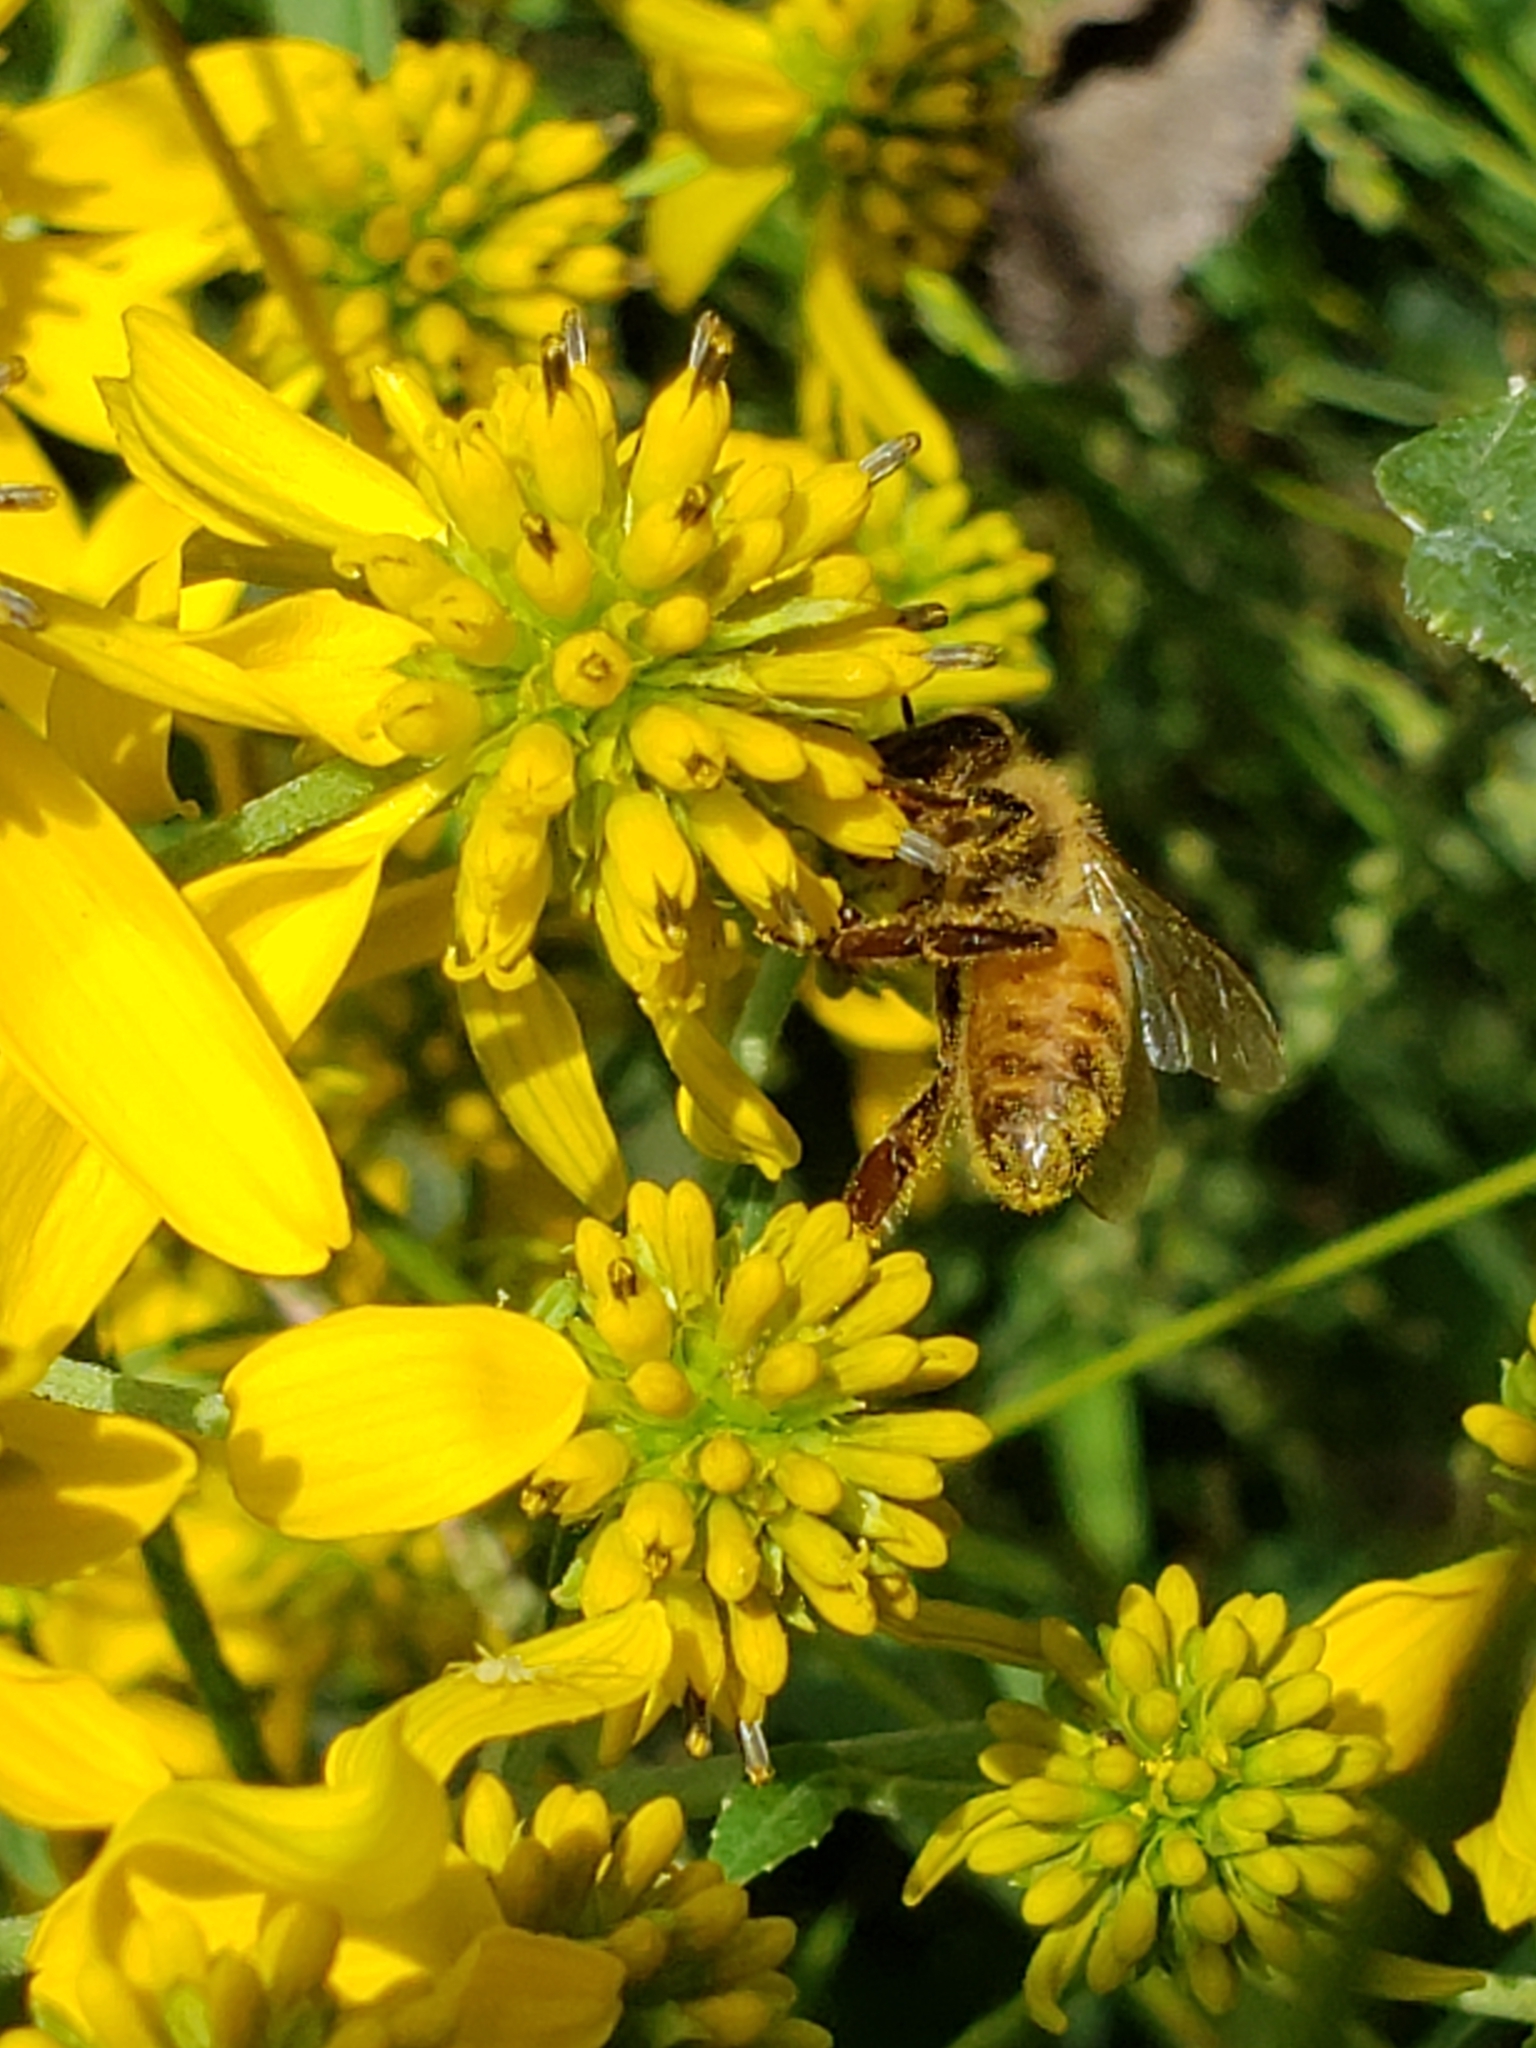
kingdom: Animalia
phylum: Arthropoda
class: Insecta
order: Hymenoptera
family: Apidae
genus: Apis
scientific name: Apis mellifera
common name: Honey bee
